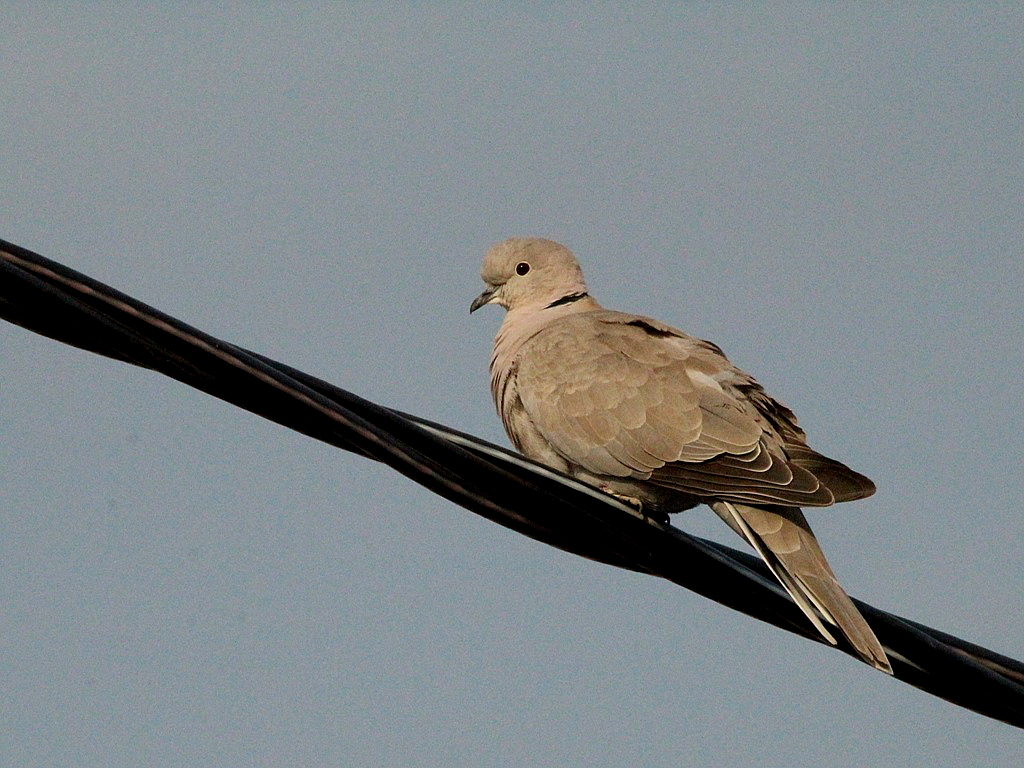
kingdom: Animalia
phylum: Chordata
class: Aves
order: Columbiformes
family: Columbidae
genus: Streptopelia
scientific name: Streptopelia decaocto
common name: Eurasian collared dove
